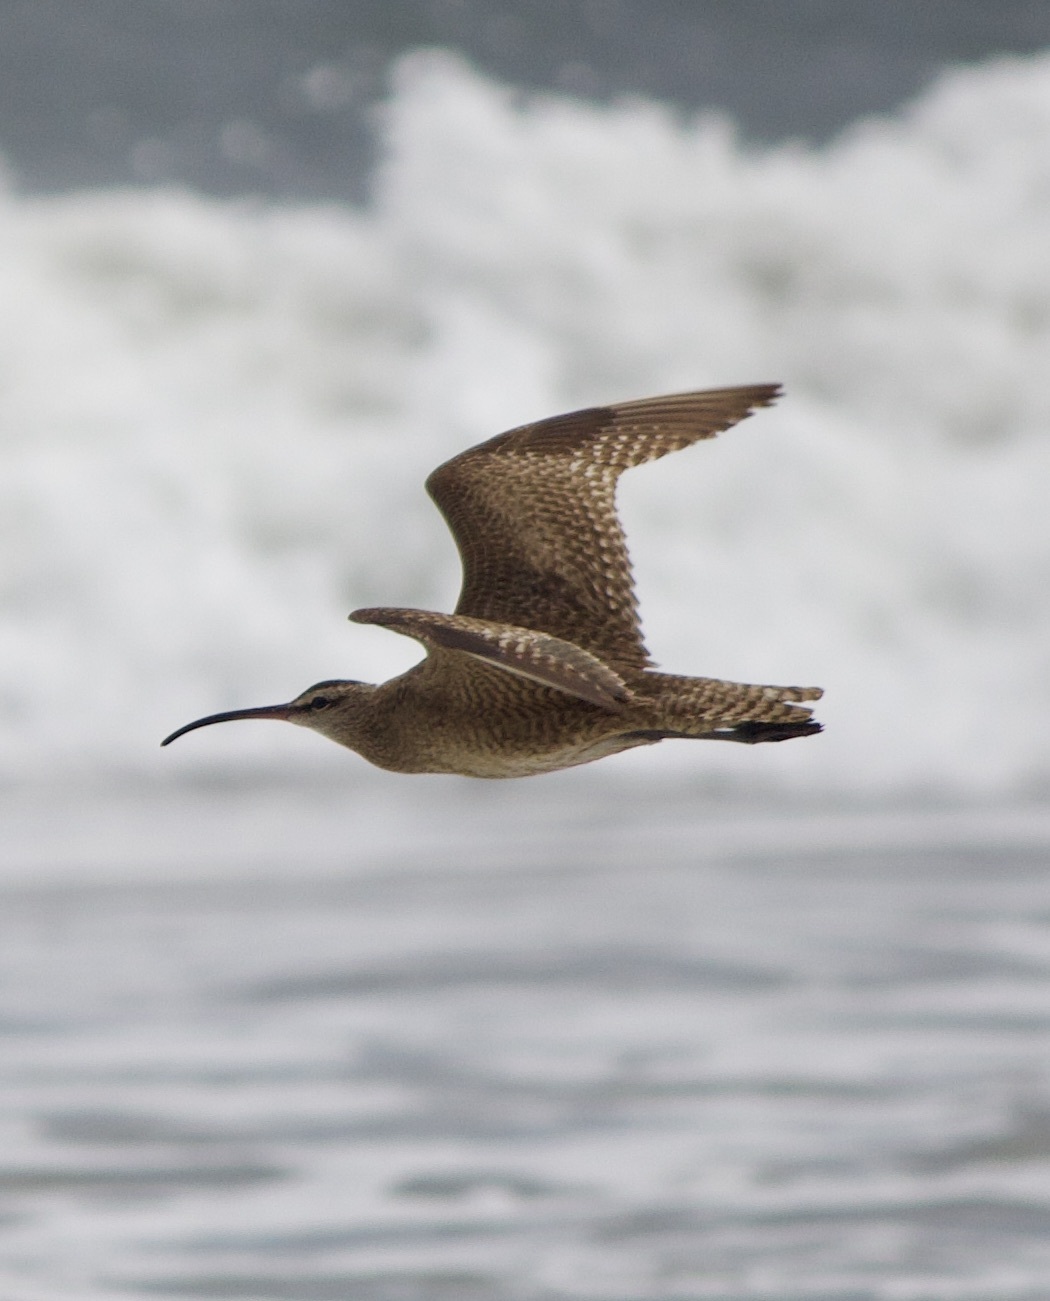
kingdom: Animalia
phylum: Chordata
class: Aves
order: Charadriiformes
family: Scolopacidae
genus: Numenius
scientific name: Numenius phaeopus
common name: Whimbrel
